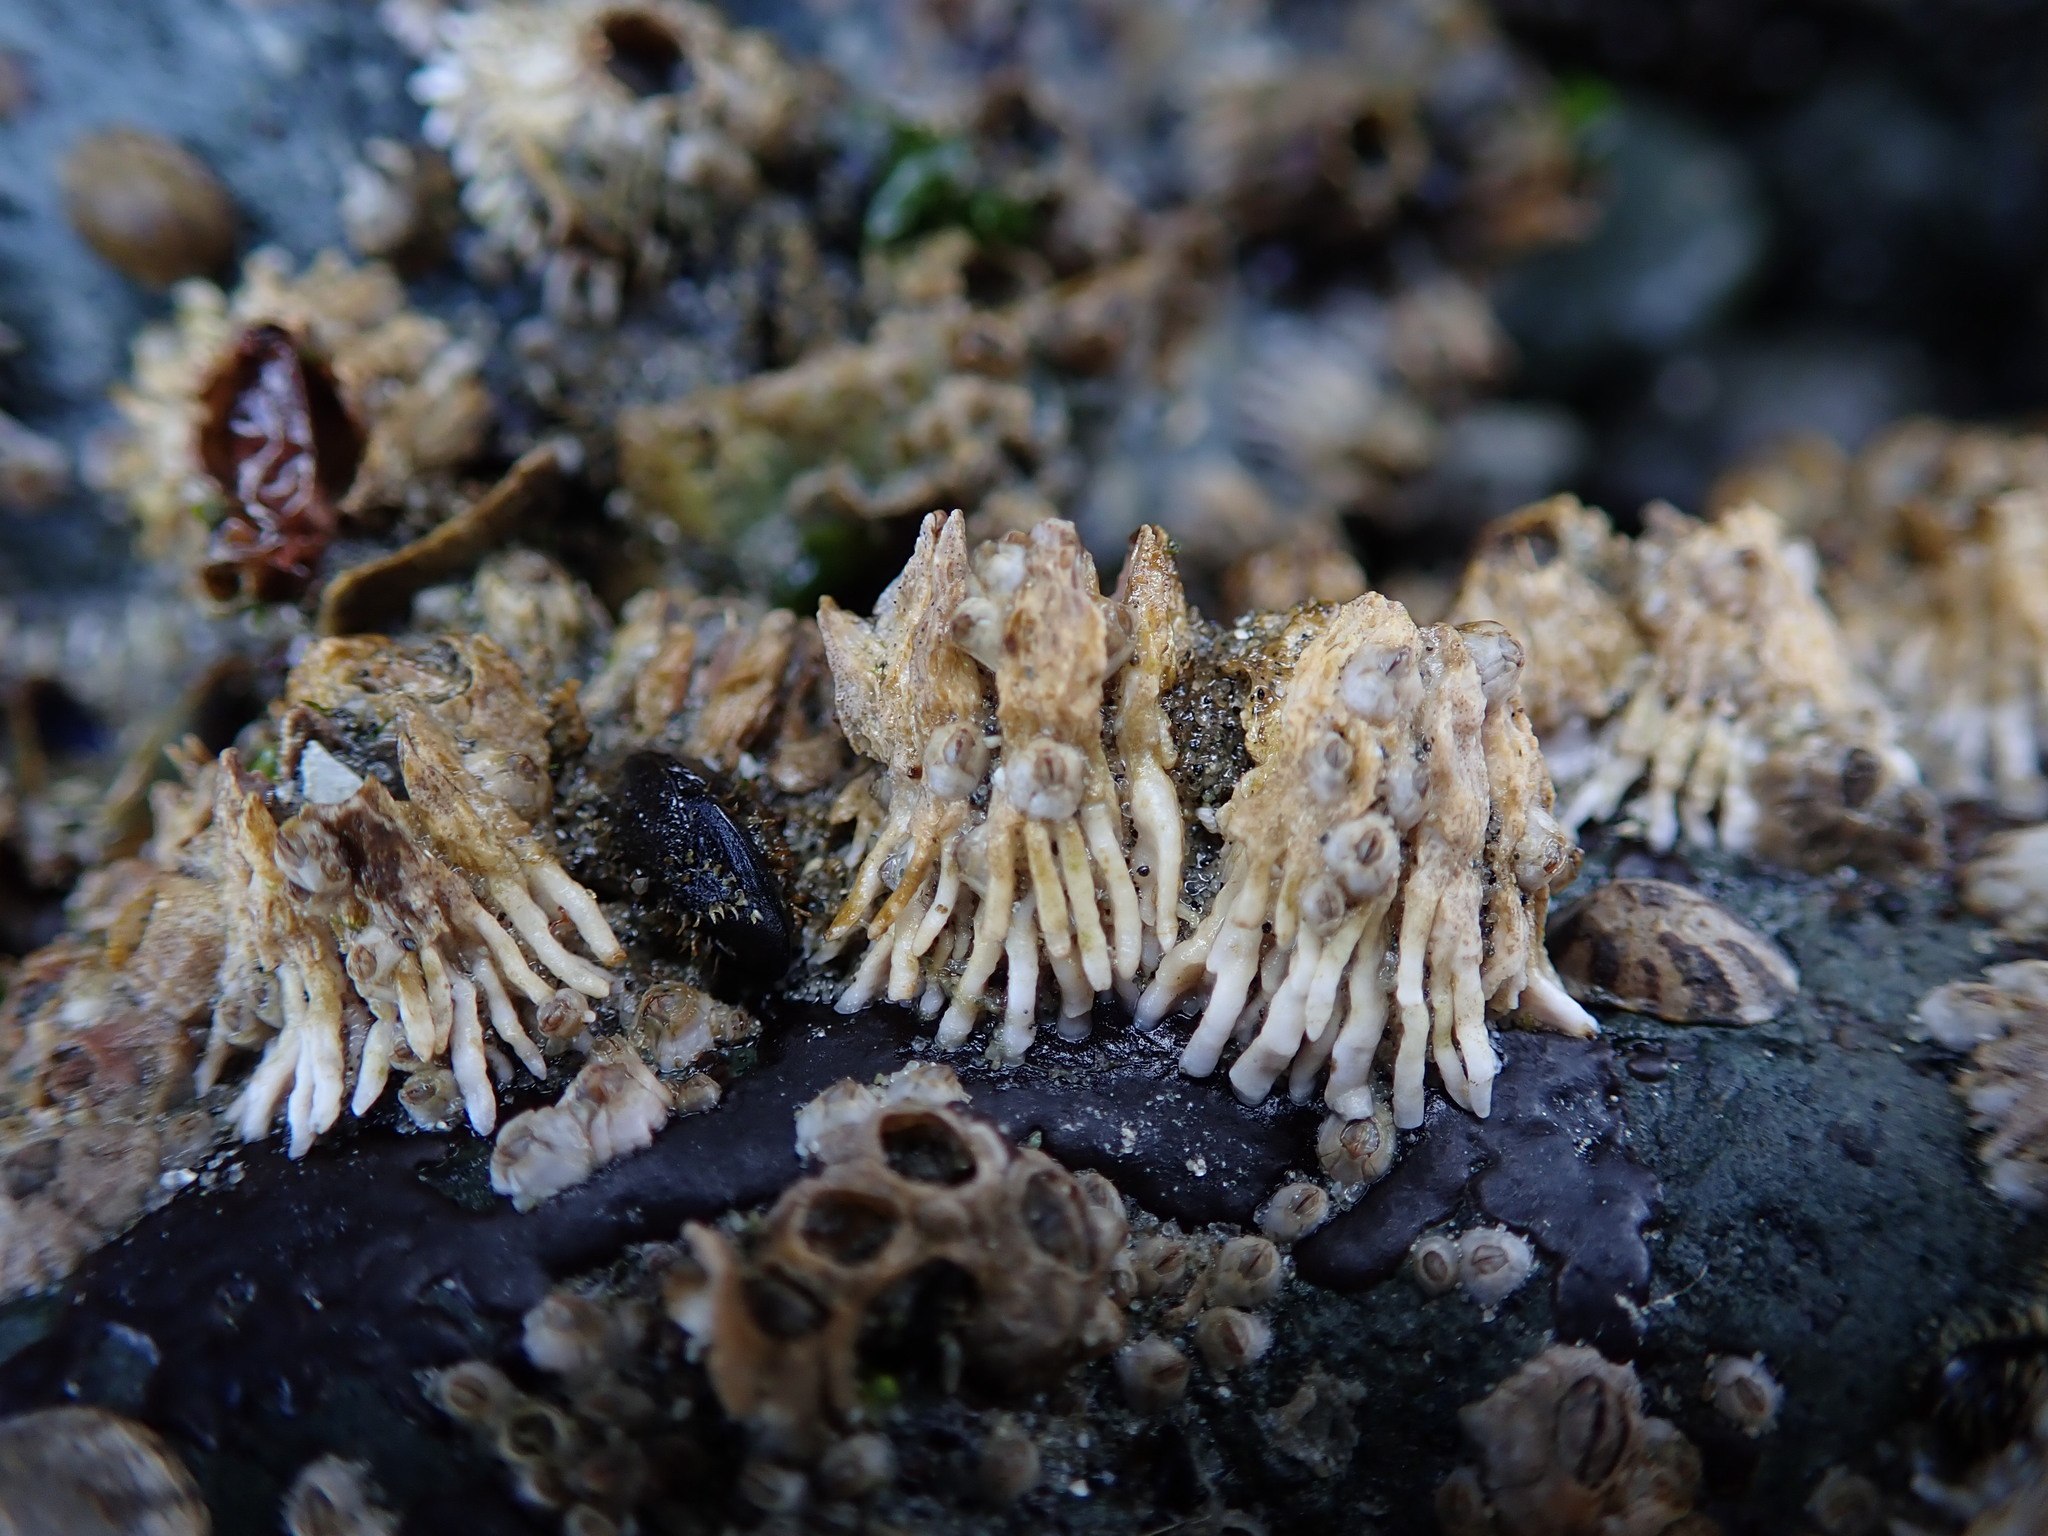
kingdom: Animalia
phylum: Arthropoda
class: Maxillopoda
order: Sessilia
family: Archaeobalanidae
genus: Semibalanus
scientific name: Semibalanus cariosus
